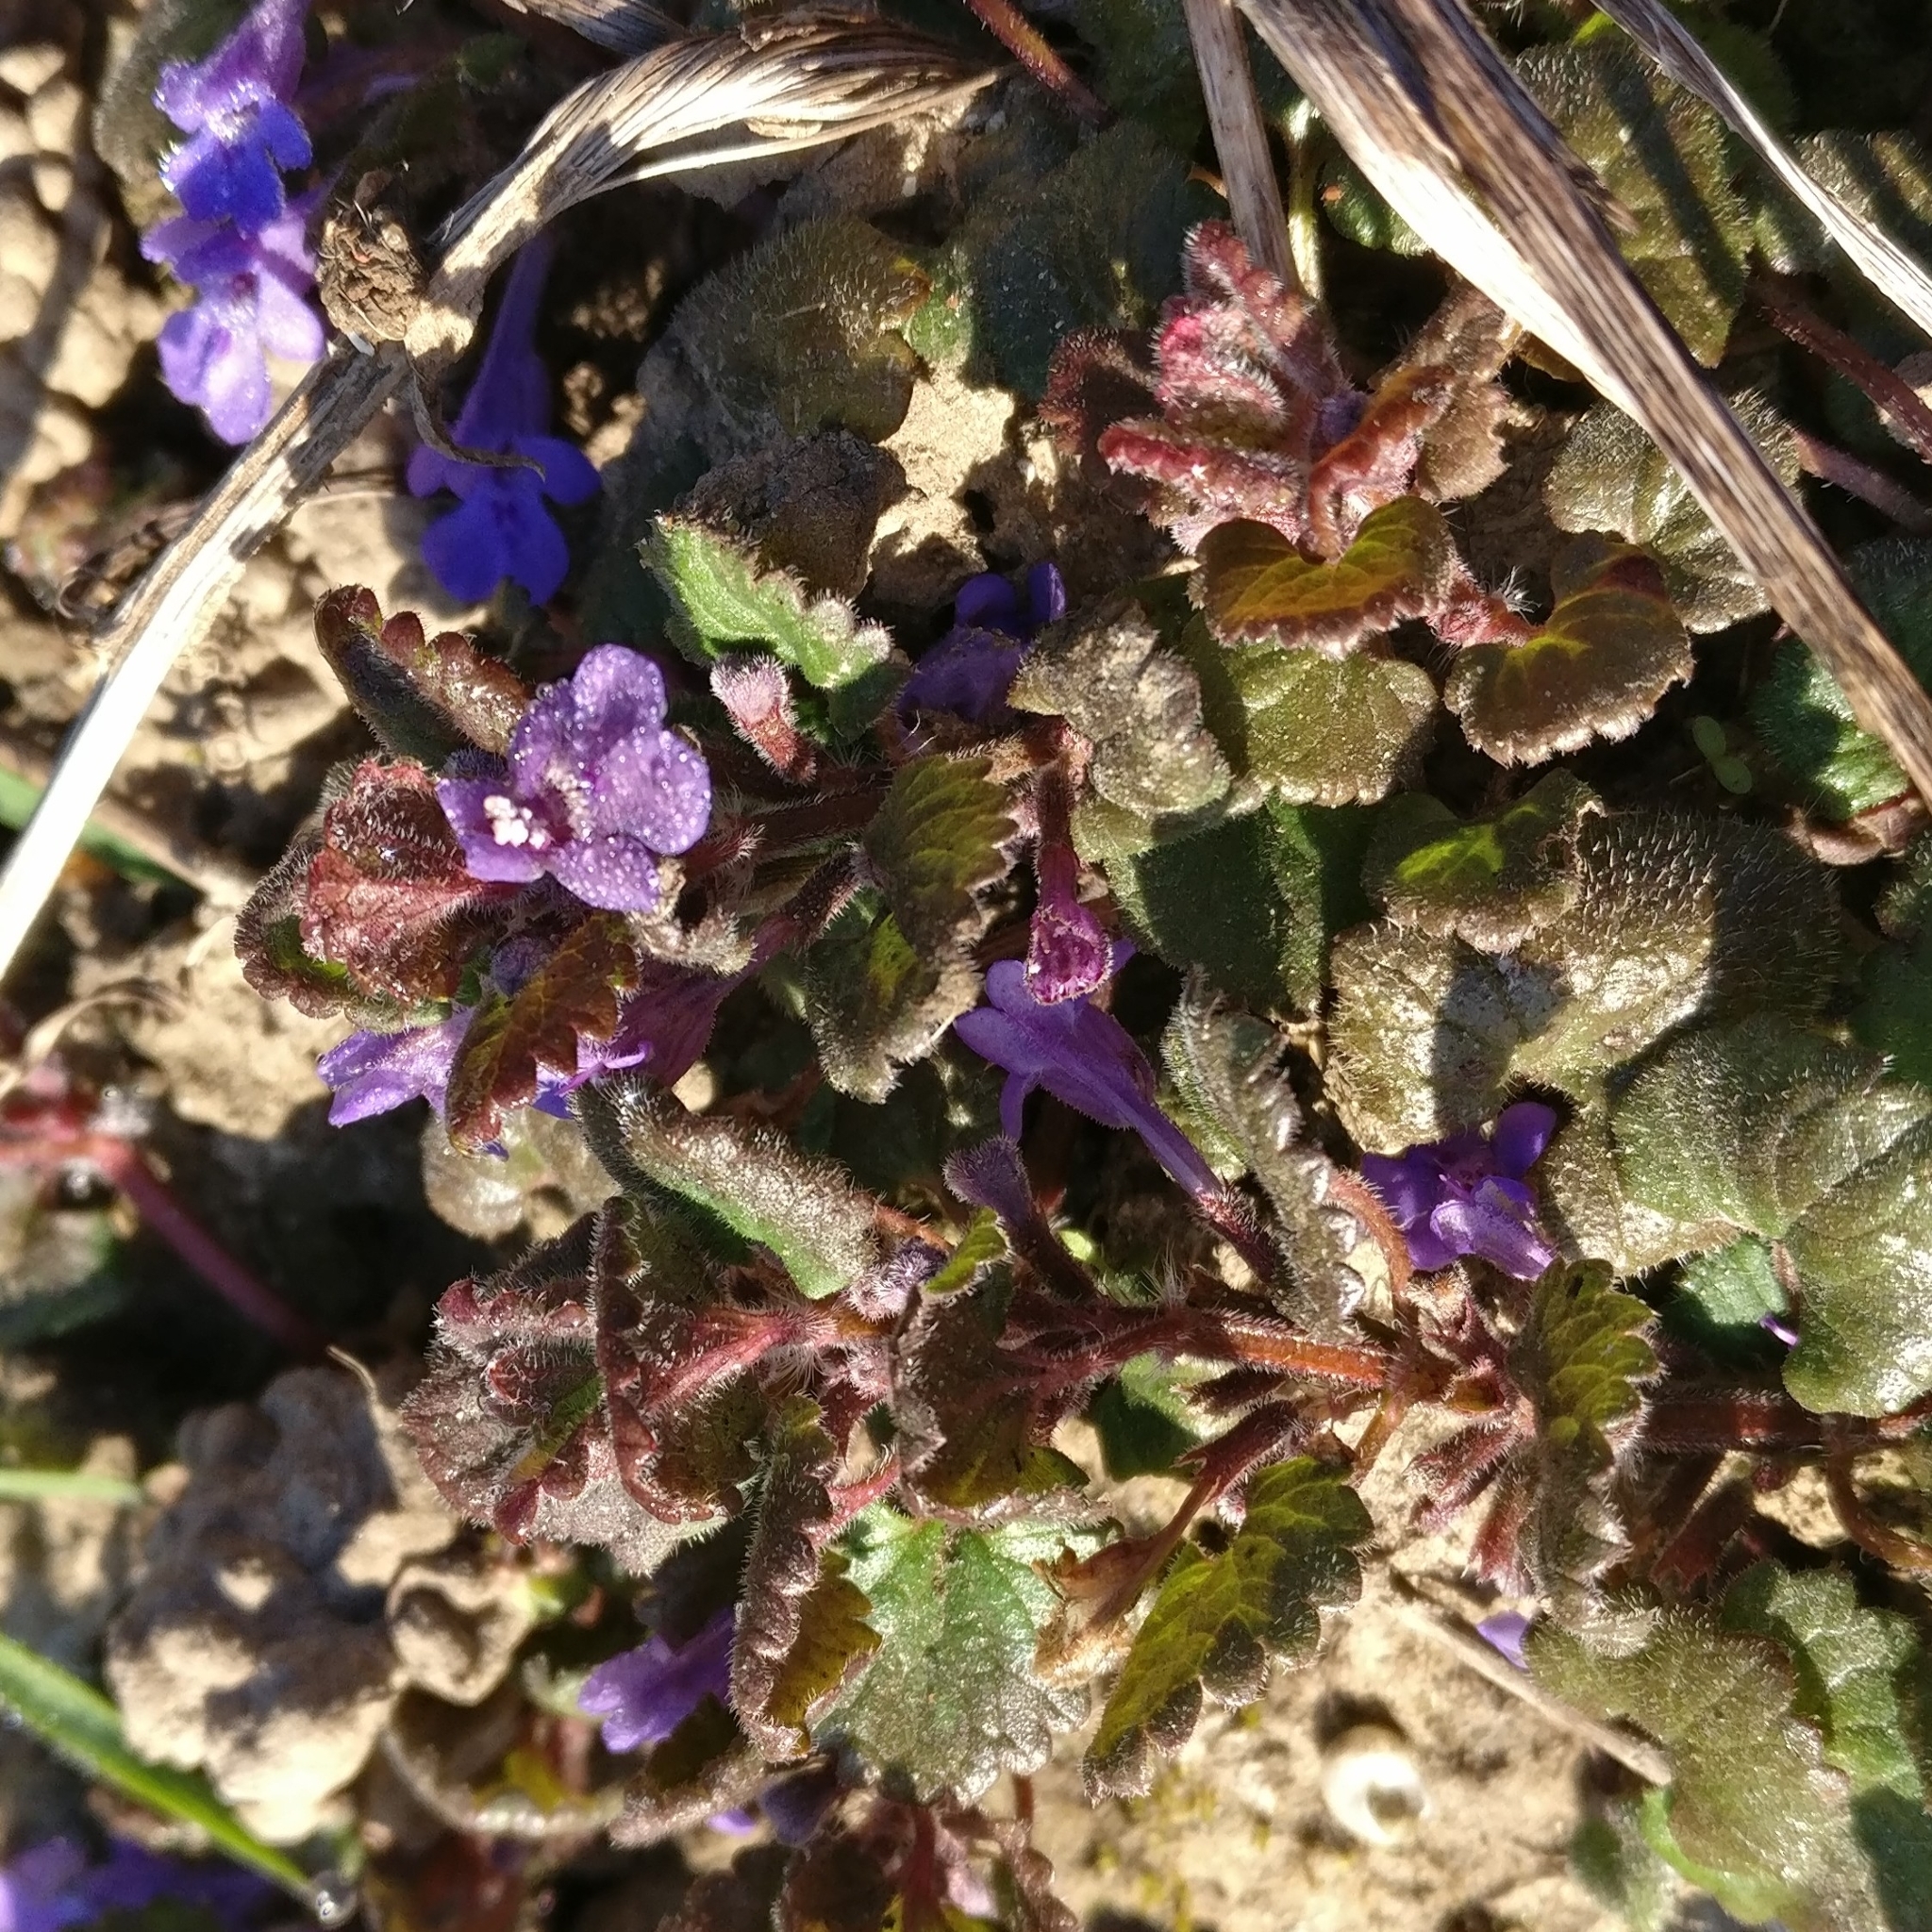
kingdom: Plantae
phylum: Tracheophyta
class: Magnoliopsida
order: Lamiales
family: Lamiaceae
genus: Glechoma
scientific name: Glechoma hederacea
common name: Ground ivy
